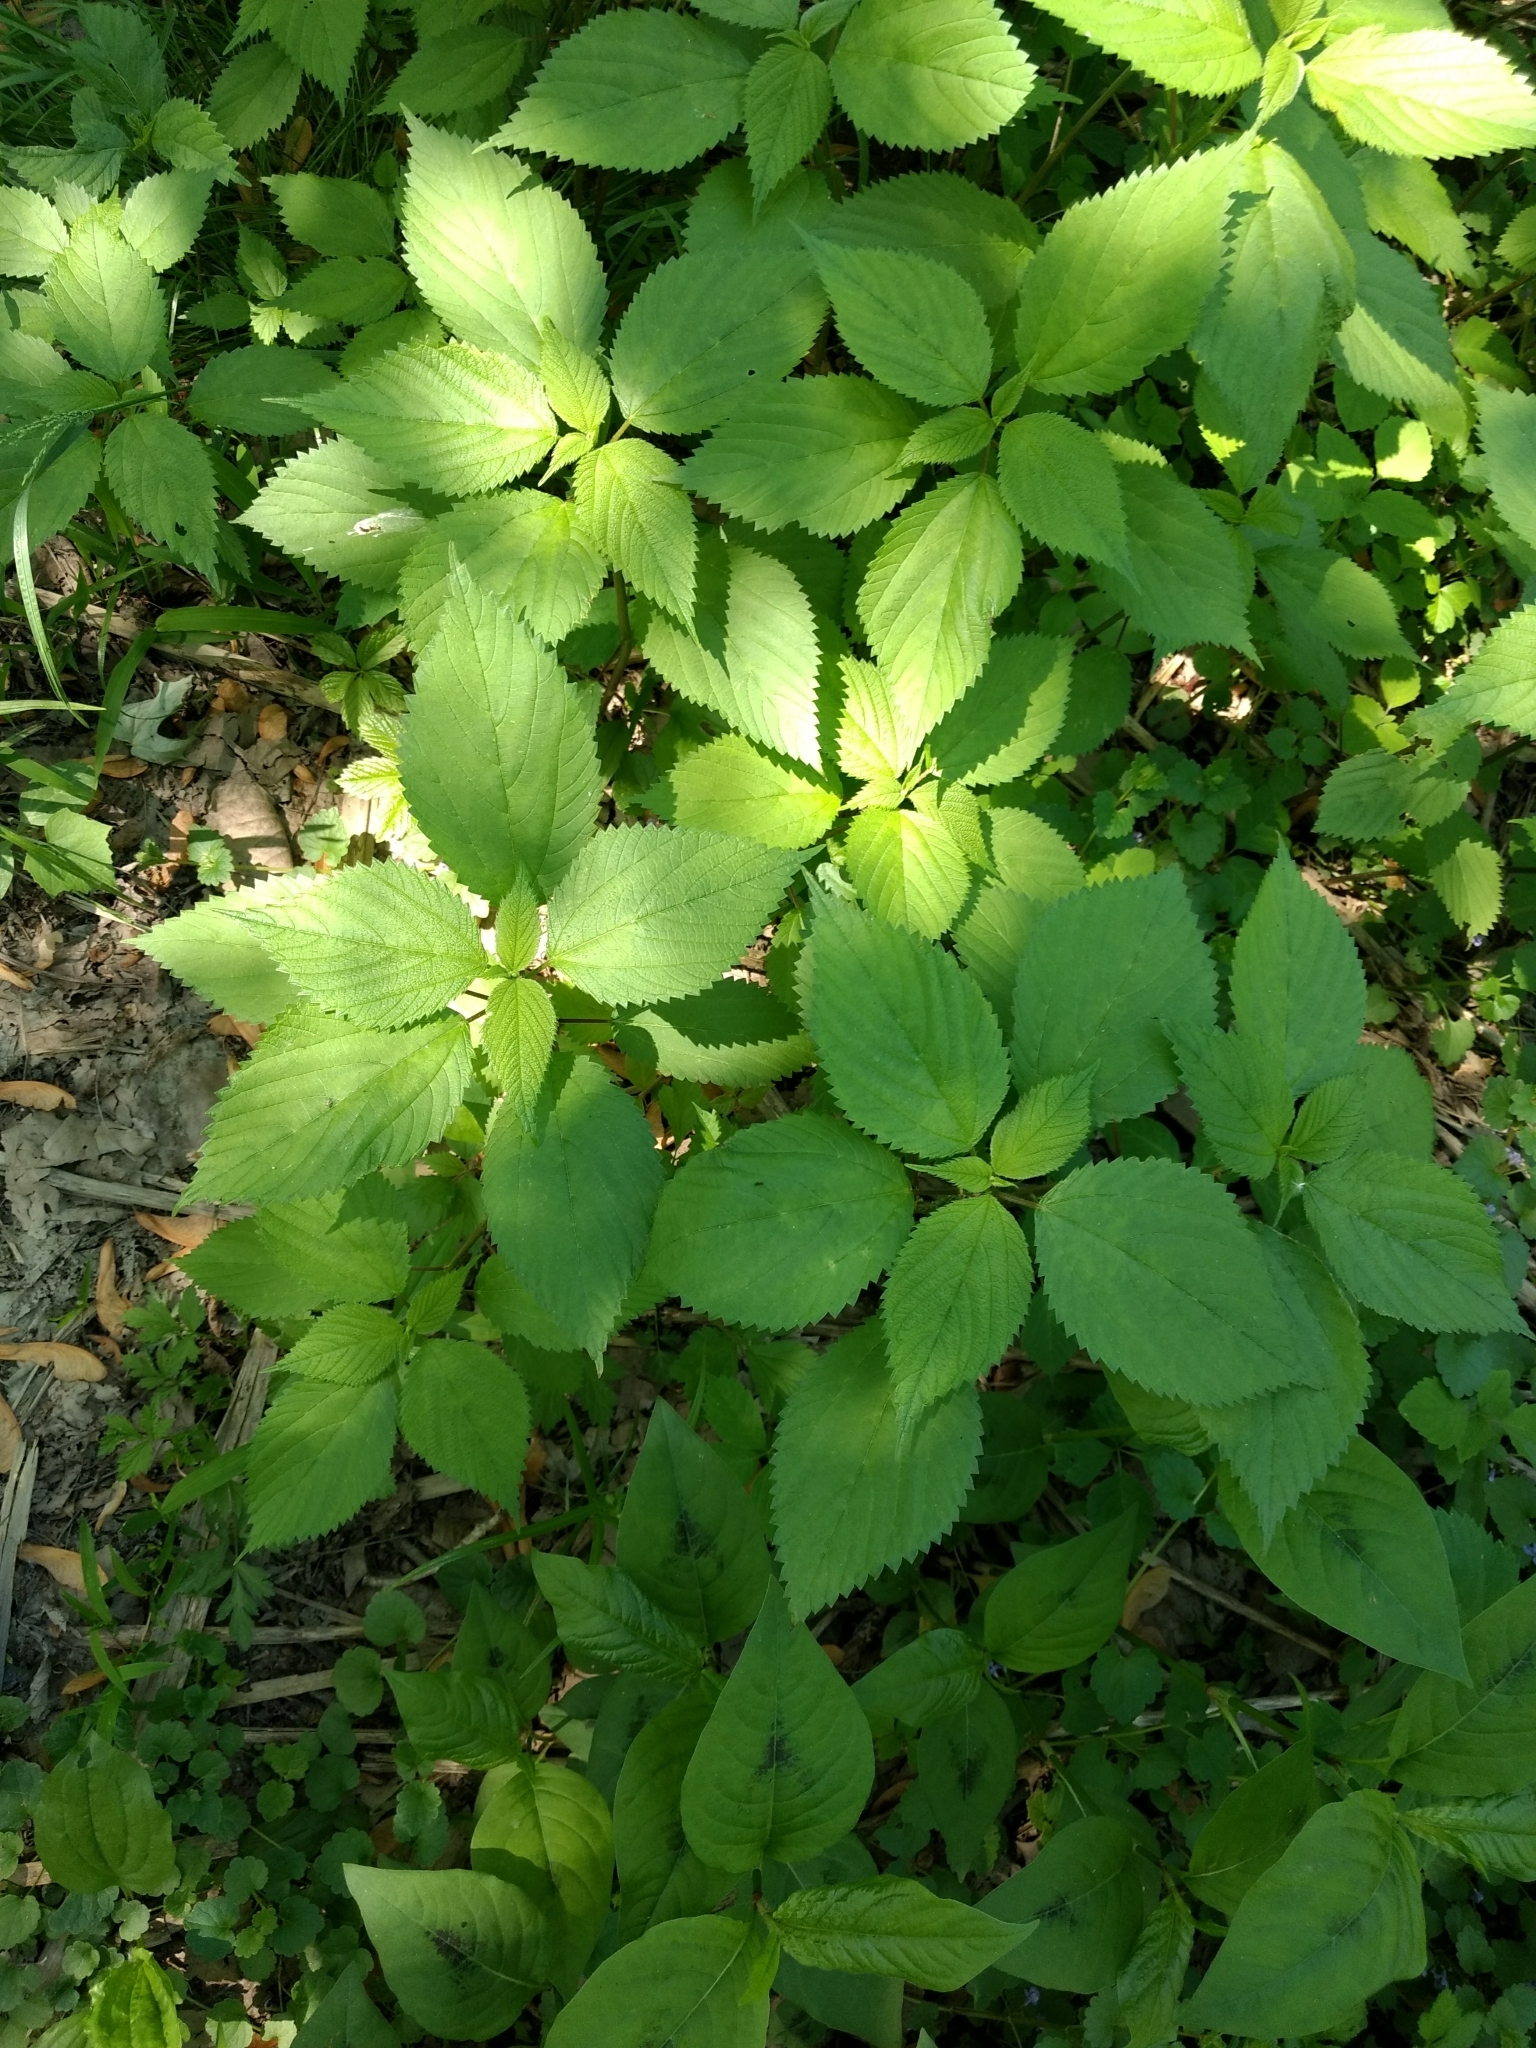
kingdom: Plantae
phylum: Tracheophyta
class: Magnoliopsida
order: Rosales
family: Urticaceae
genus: Laportea
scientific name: Laportea canadensis
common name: Canada nettle
